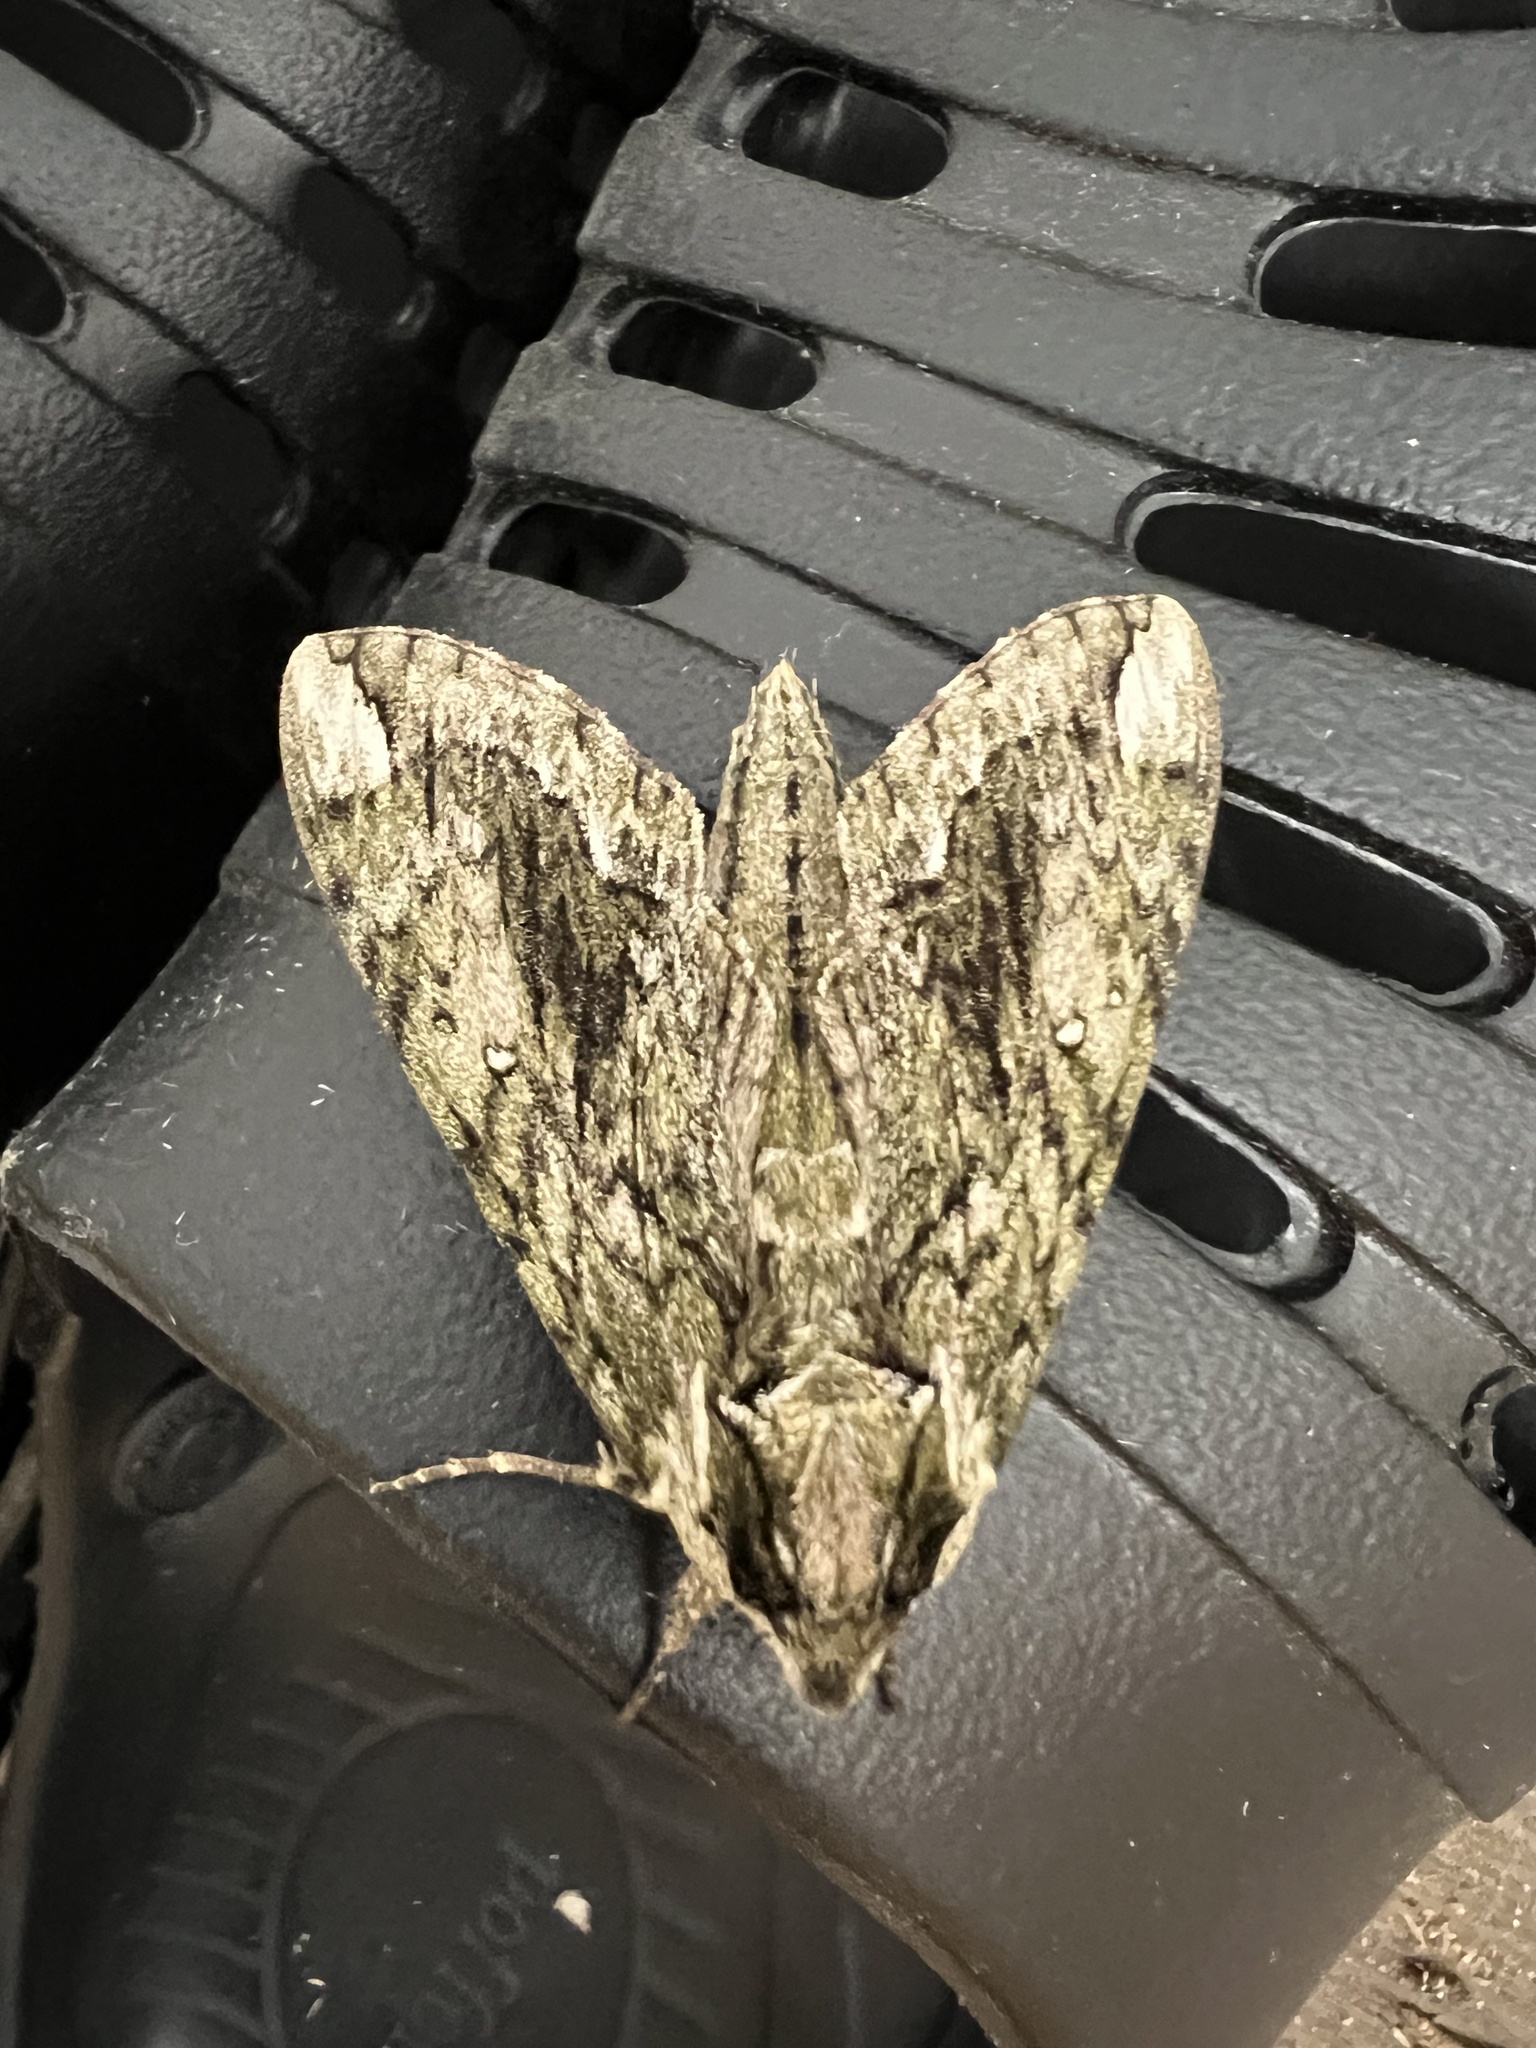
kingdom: Animalia
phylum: Arthropoda
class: Insecta
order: Lepidoptera
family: Sphingidae
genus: Ceratomia
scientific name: Ceratomia hageni
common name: Hagen's sphinx
